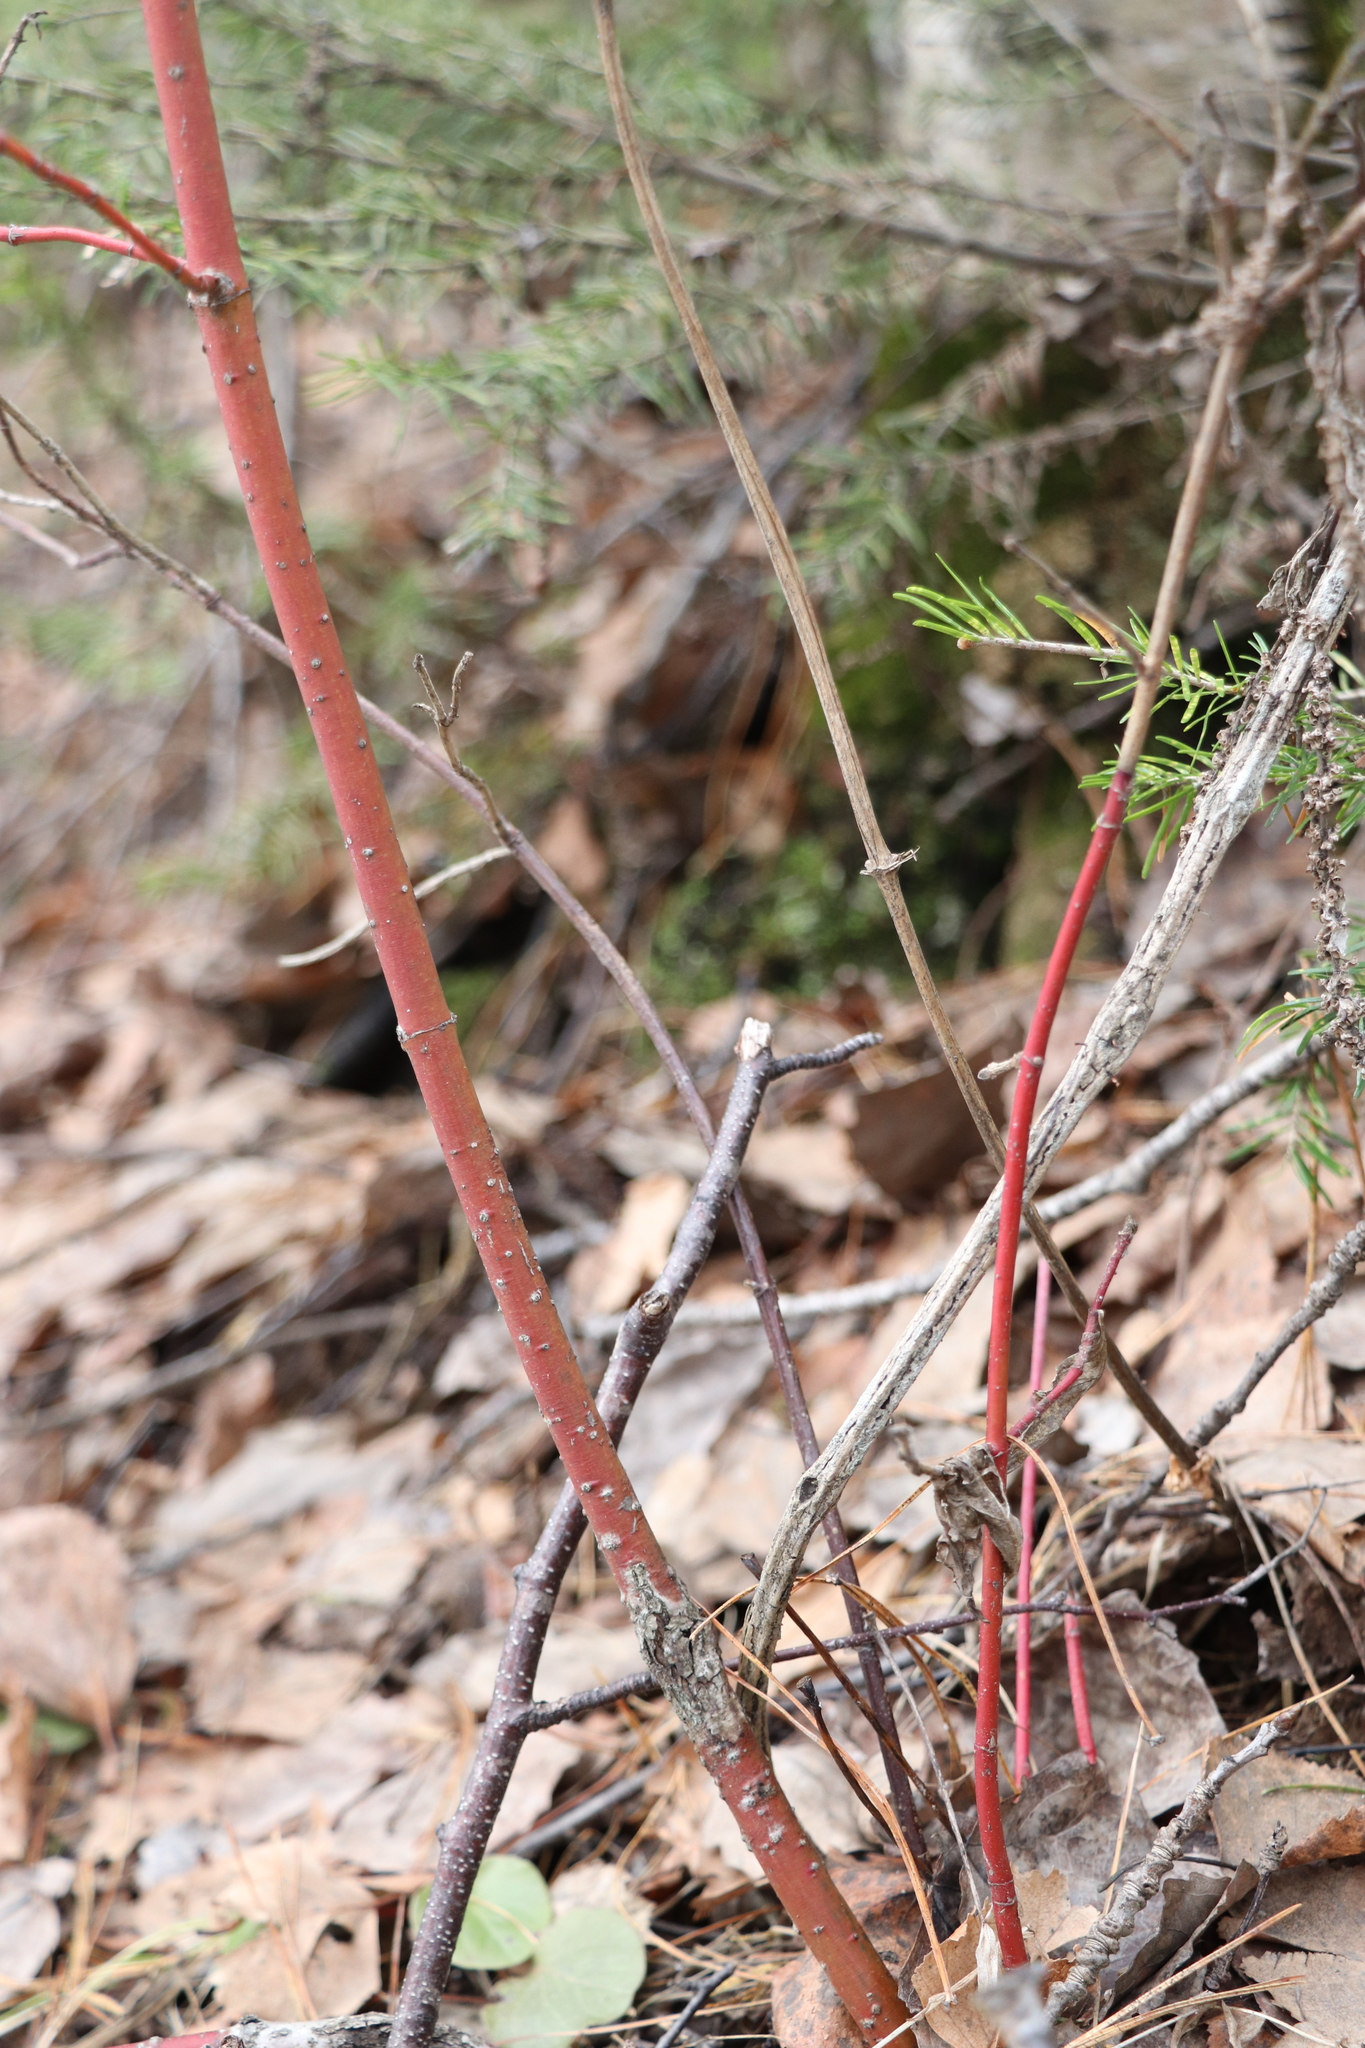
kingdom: Plantae
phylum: Tracheophyta
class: Magnoliopsida
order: Cornales
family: Cornaceae
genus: Cornus
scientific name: Cornus alba
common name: White dogwood
